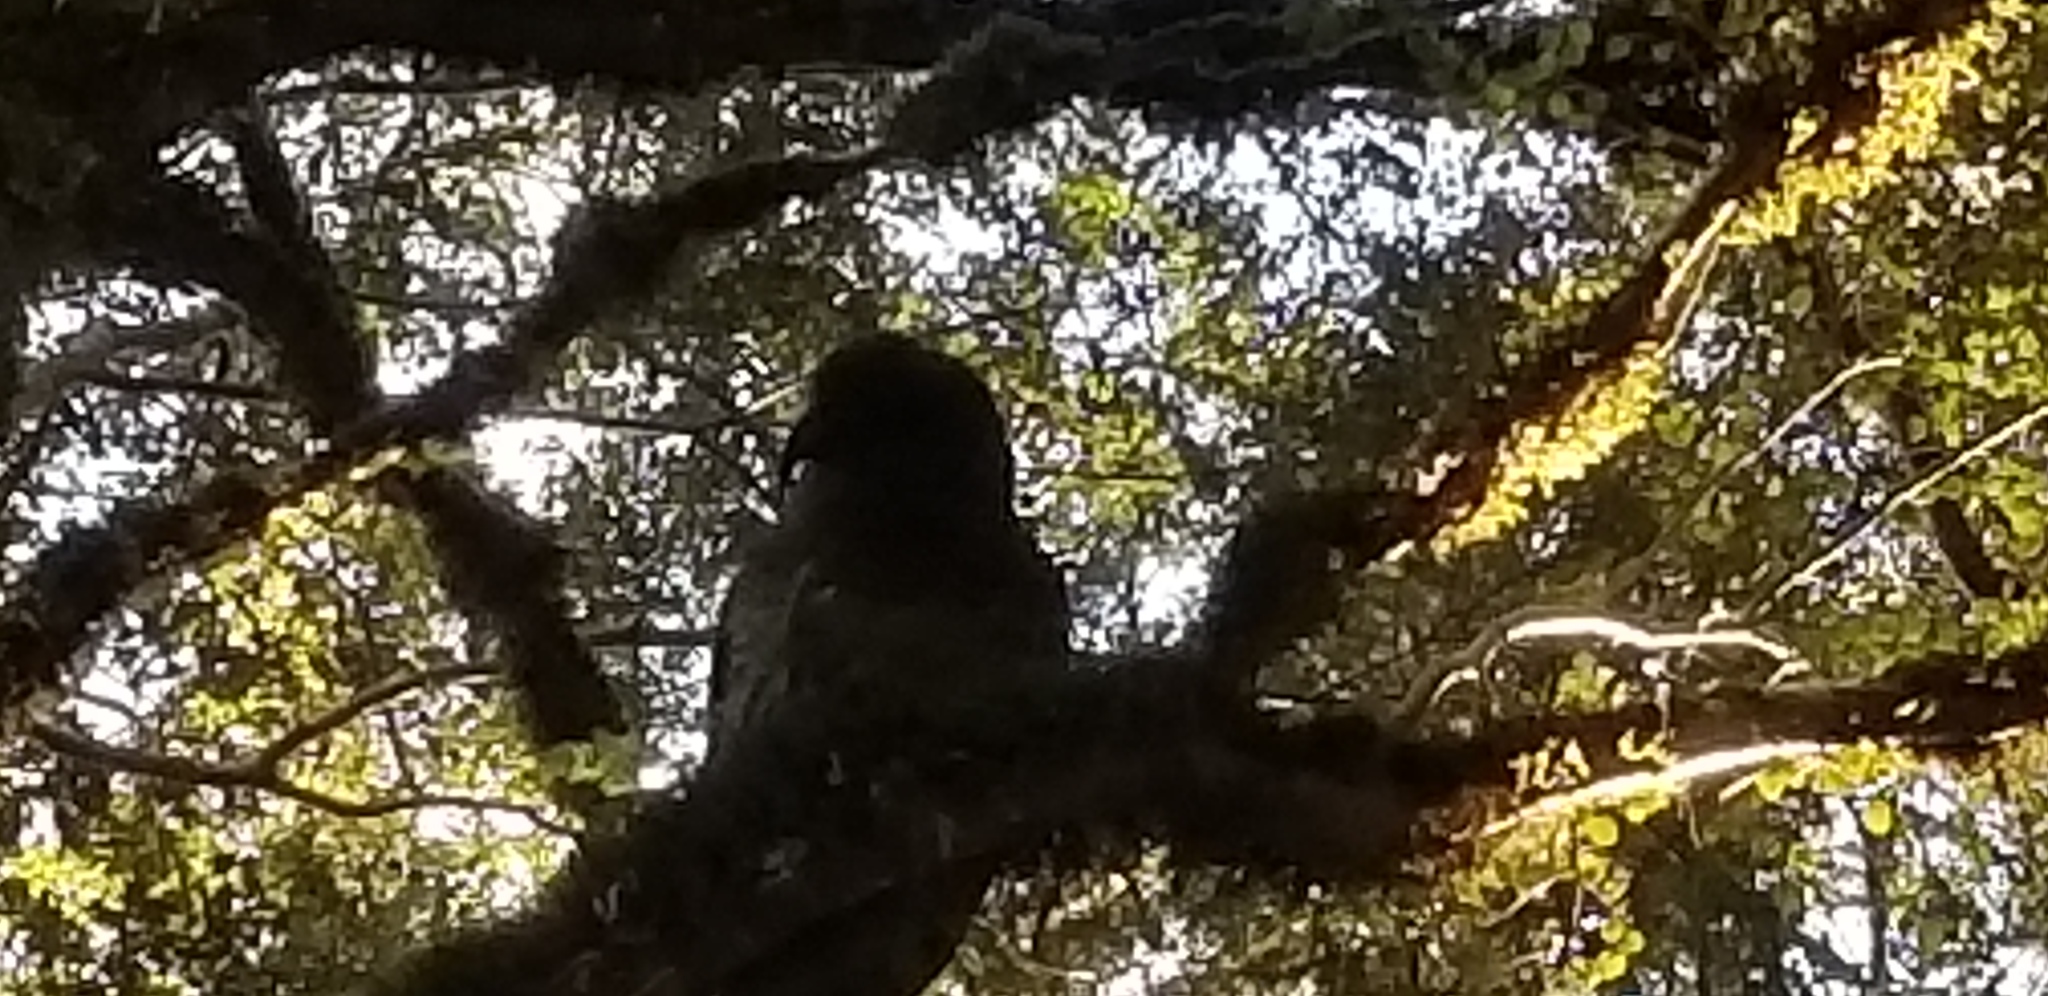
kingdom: Animalia
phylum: Chordata
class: Aves
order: Psittaciformes
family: Psittacidae
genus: Nestor
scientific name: Nestor notabilis
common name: Kea
